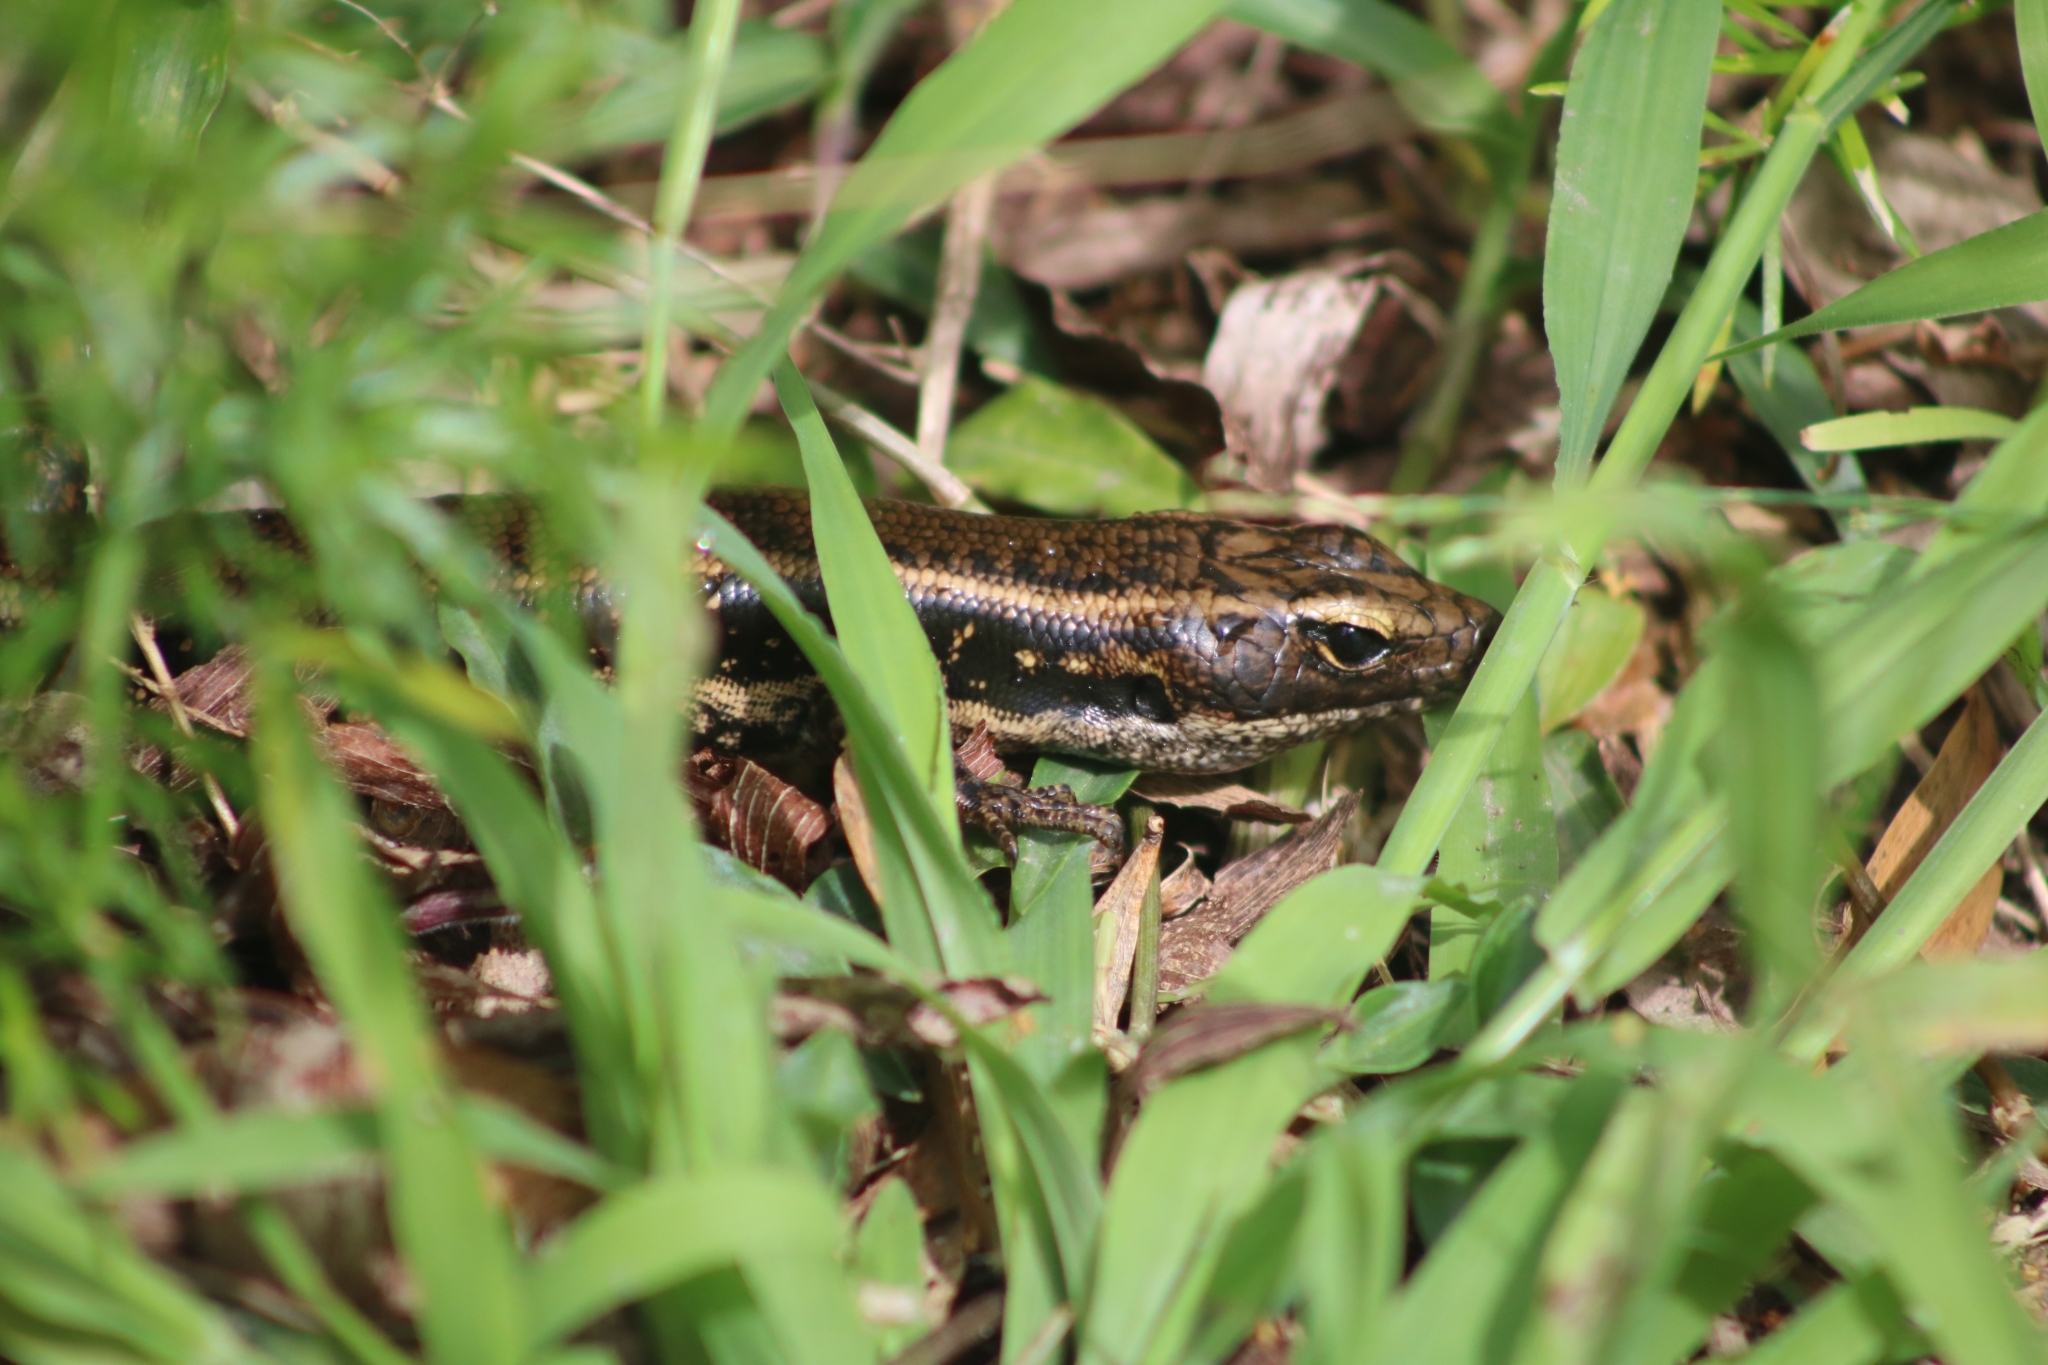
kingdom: Animalia
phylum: Chordata
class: Squamata
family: Scincidae
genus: Eulamprus
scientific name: Eulamprus quoyii
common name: Eastern water skink
